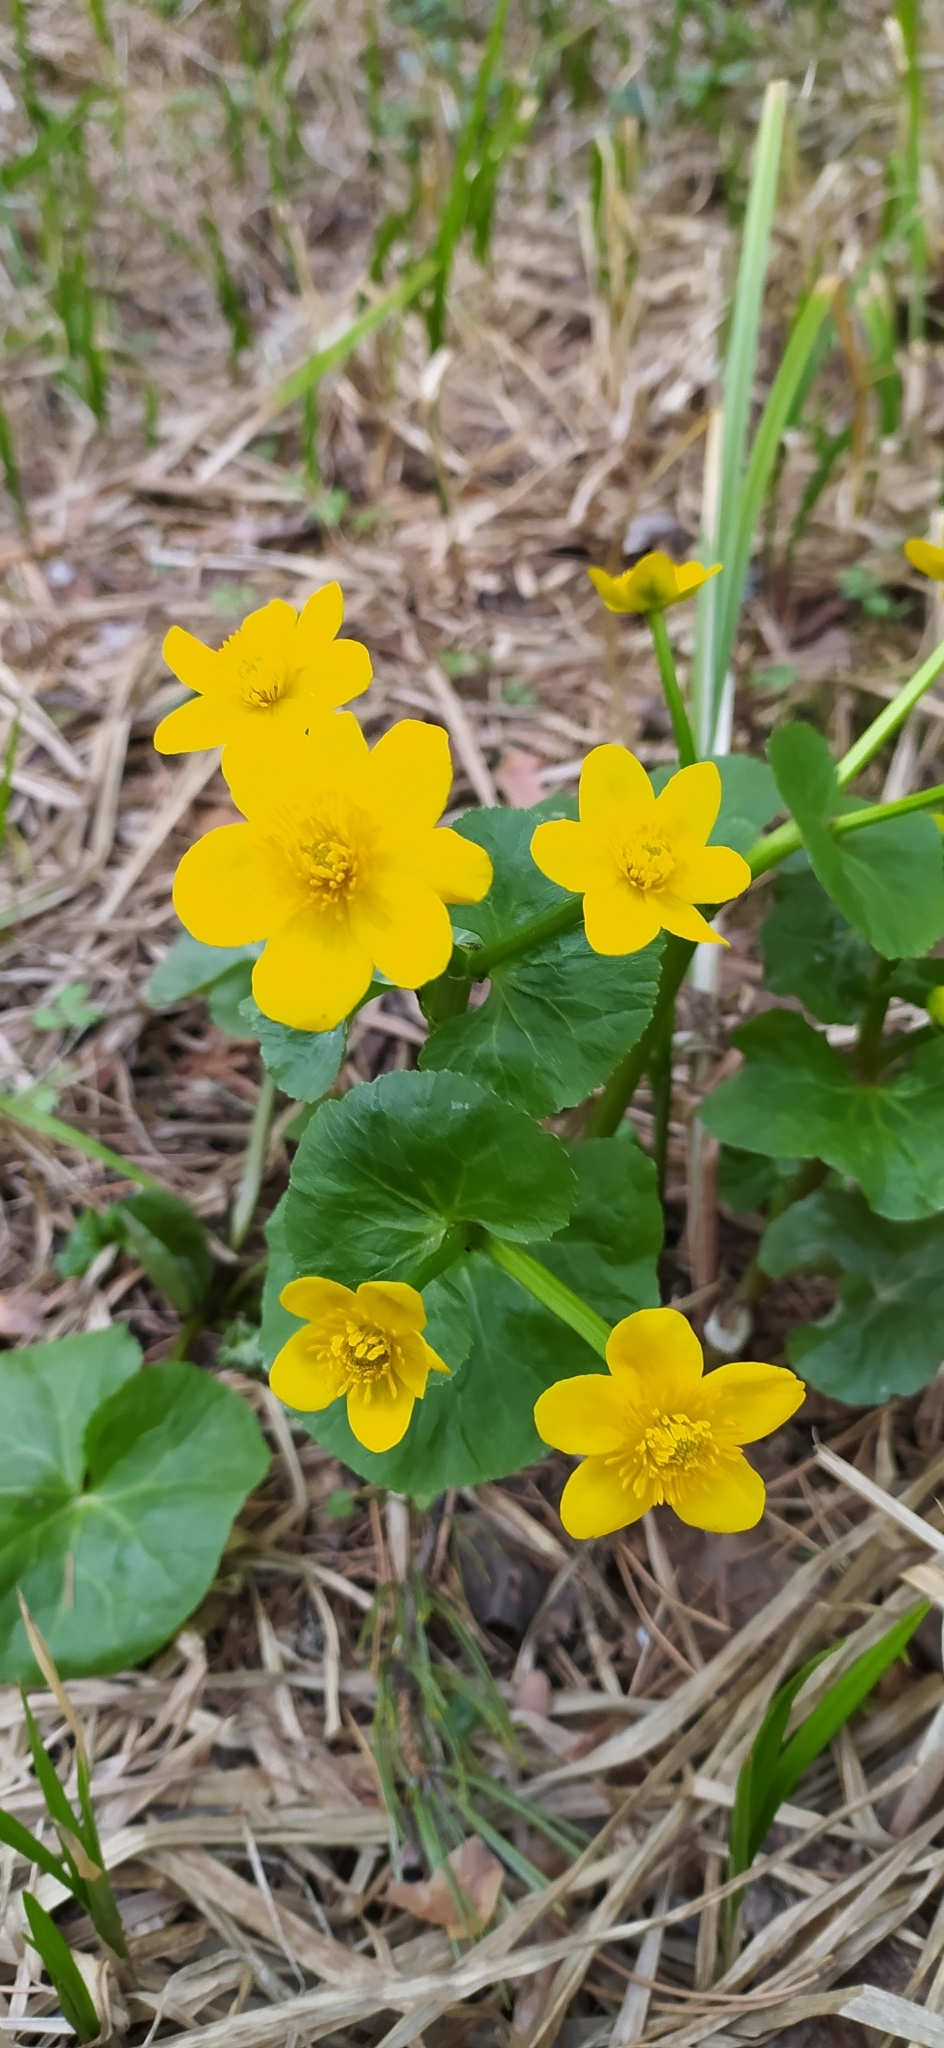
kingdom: Plantae
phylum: Tracheophyta
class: Magnoliopsida
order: Ranunculales
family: Ranunculaceae
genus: Caltha
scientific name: Caltha palustris
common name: Marsh marigold
